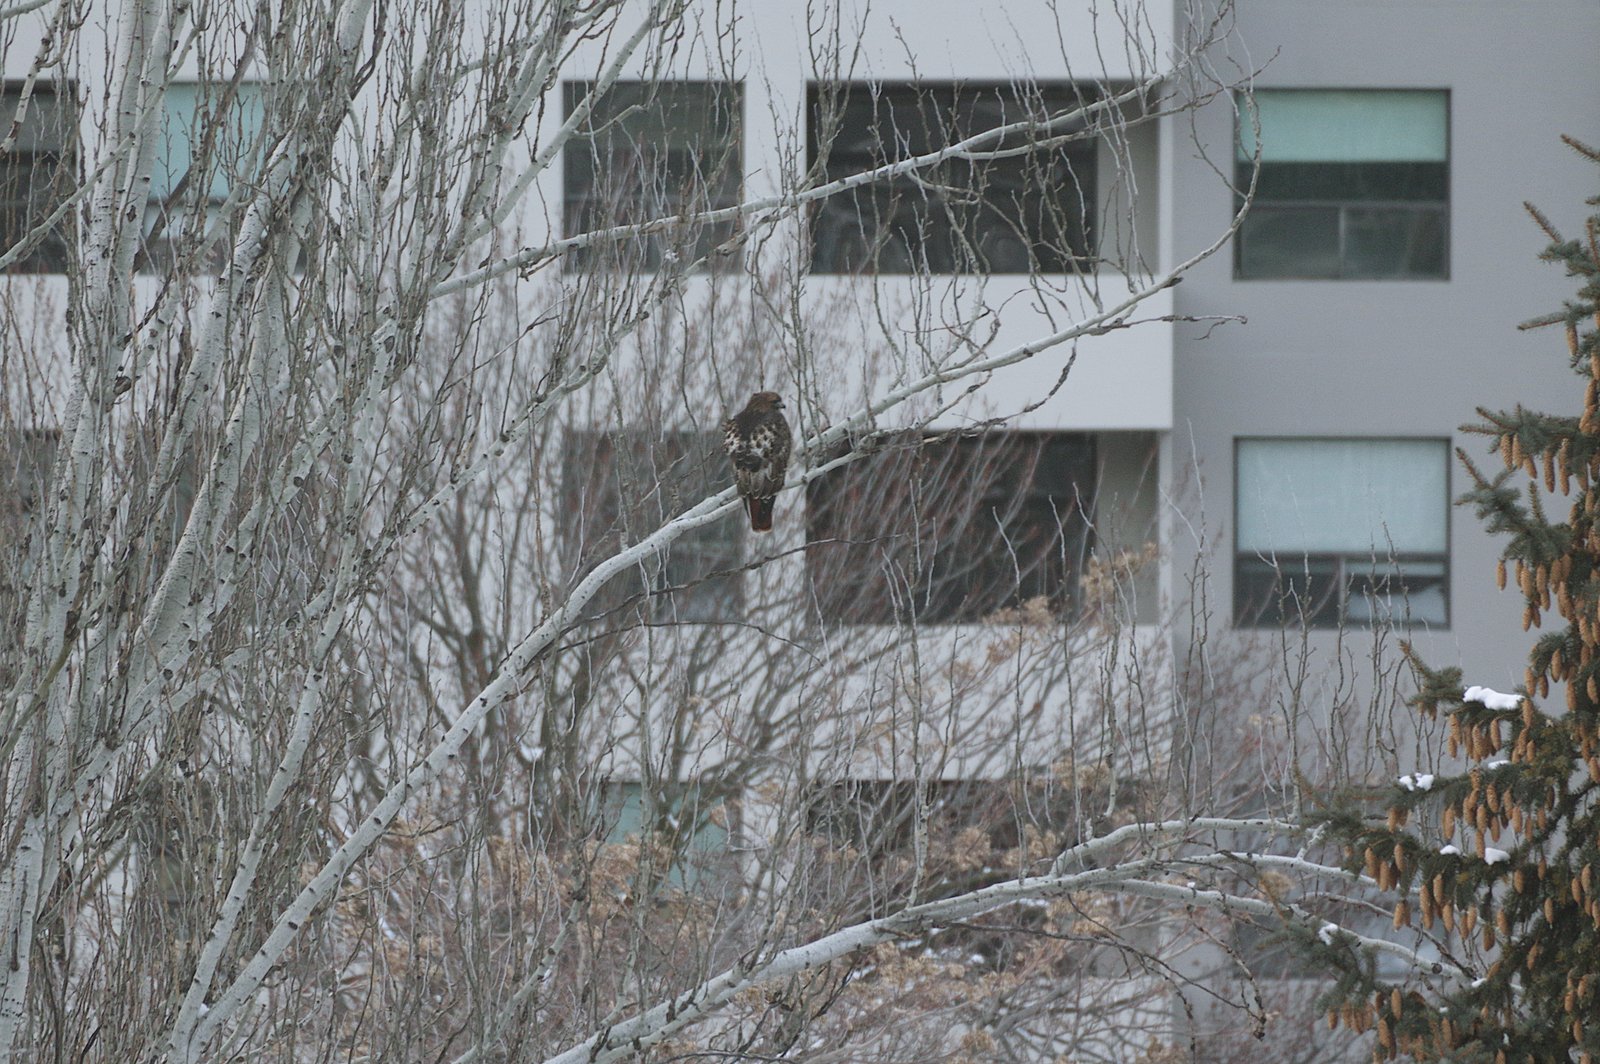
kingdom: Animalia
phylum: Chordata
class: Aves
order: Accipitriformes
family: Accipitridae
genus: Buteo
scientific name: Buteo jamaicensis
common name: Red-tailed hawk
